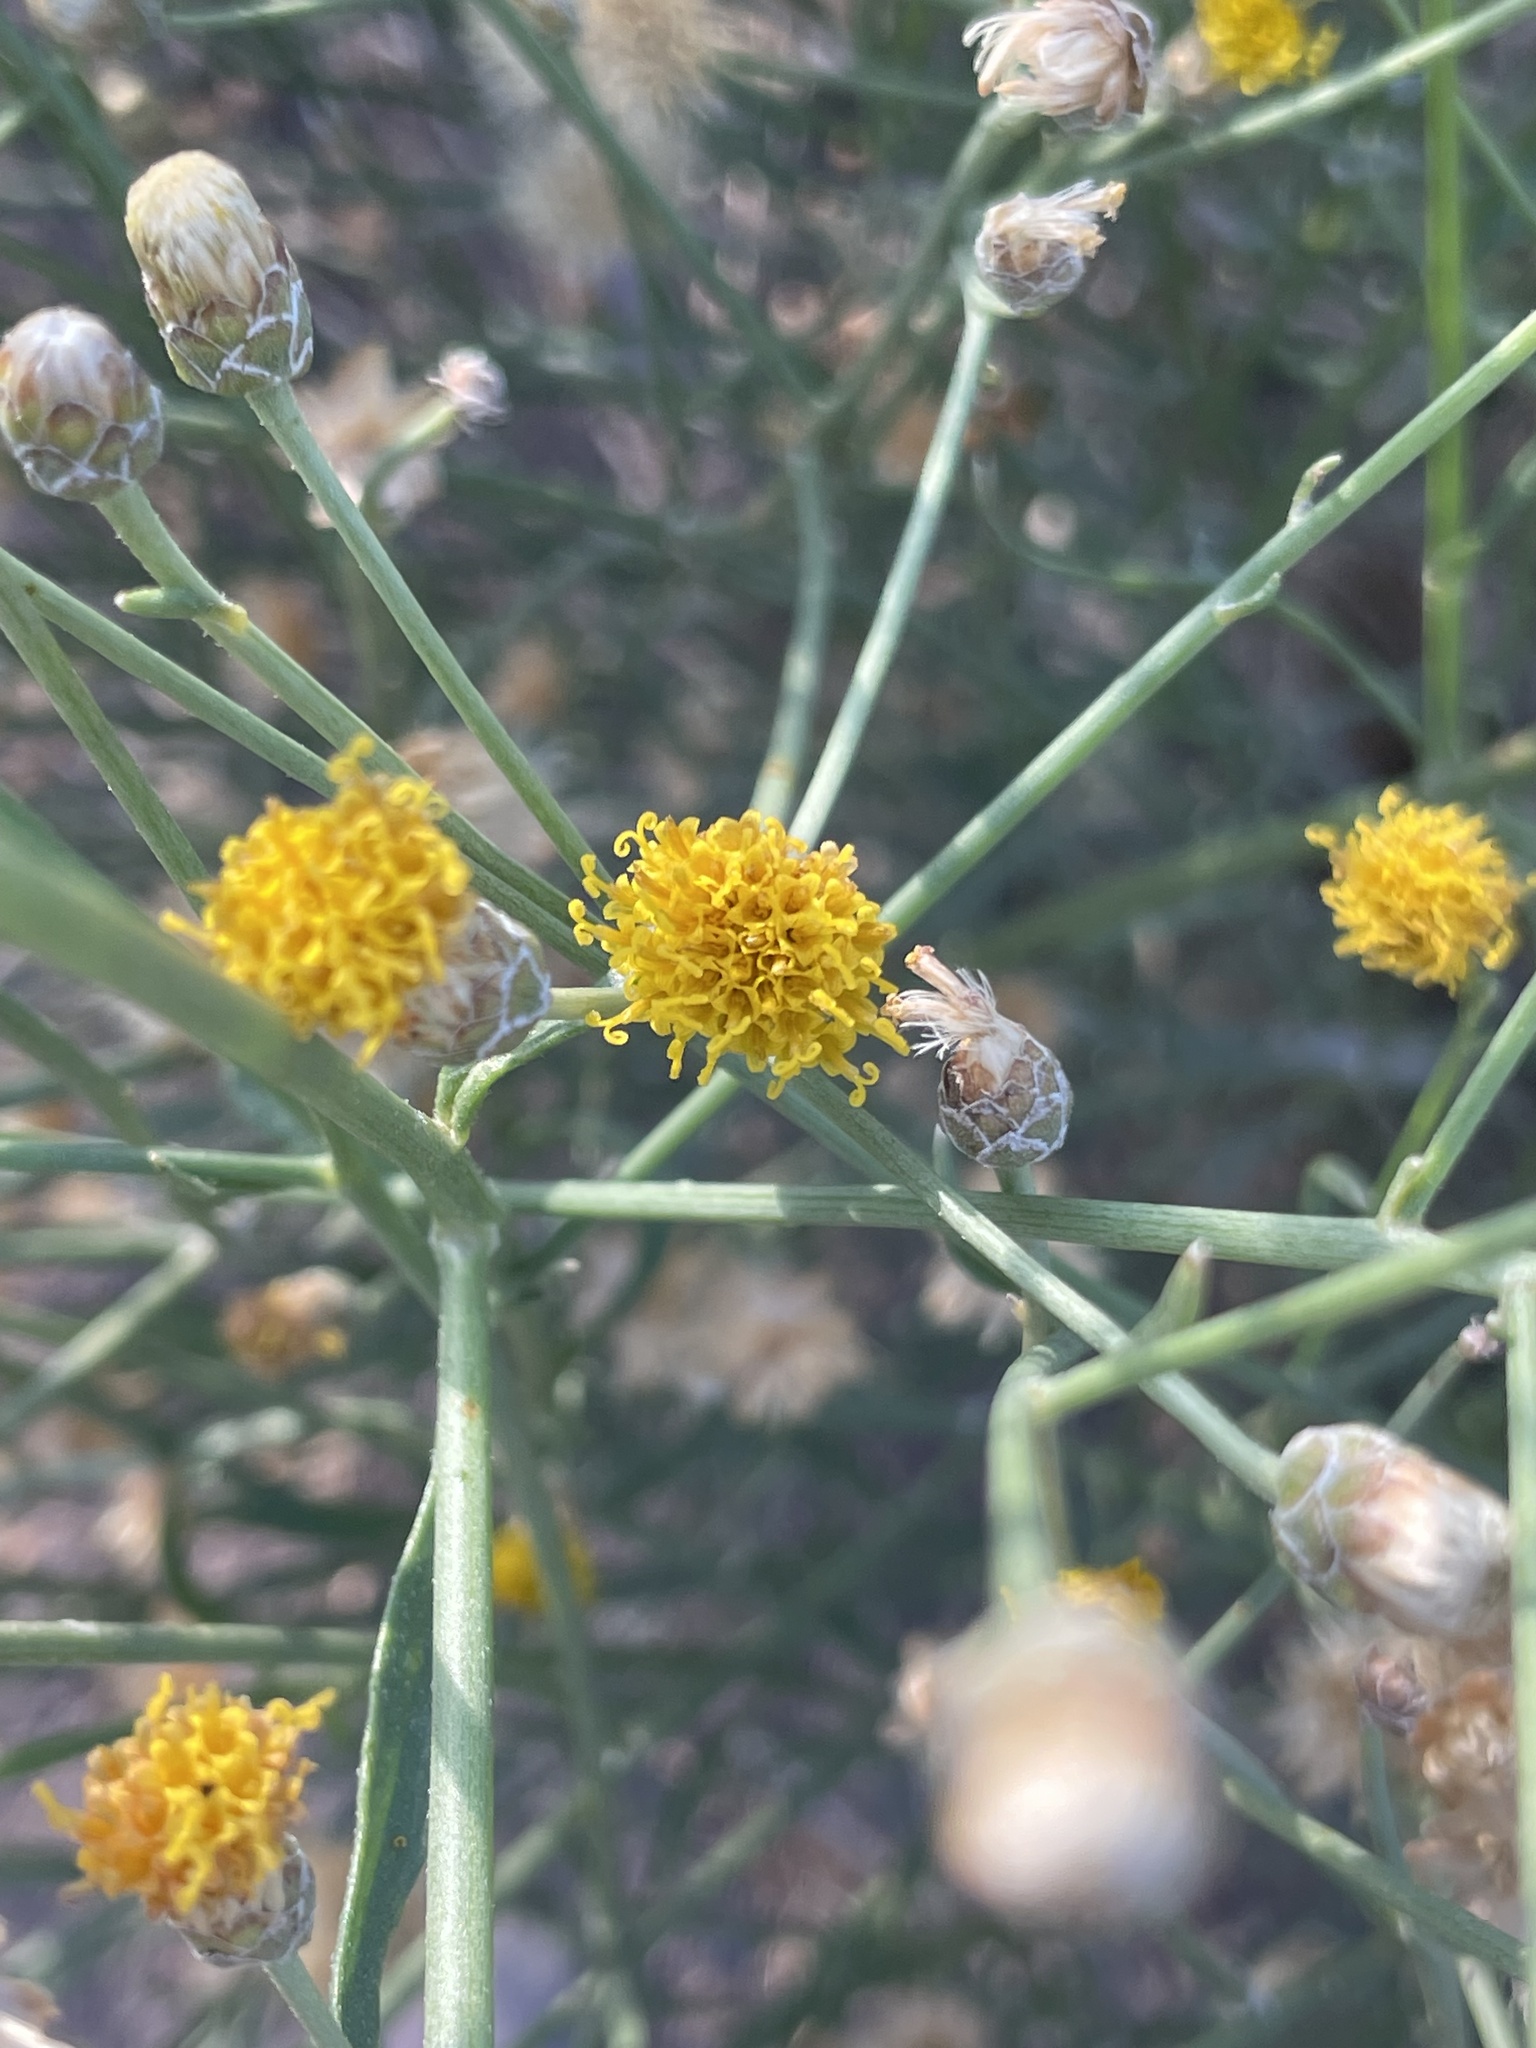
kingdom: Plantae
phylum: Tracheophyta
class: Magnoliopsida
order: Asterales
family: Asteraceae
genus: Bebbia
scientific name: Bebbia juncea
